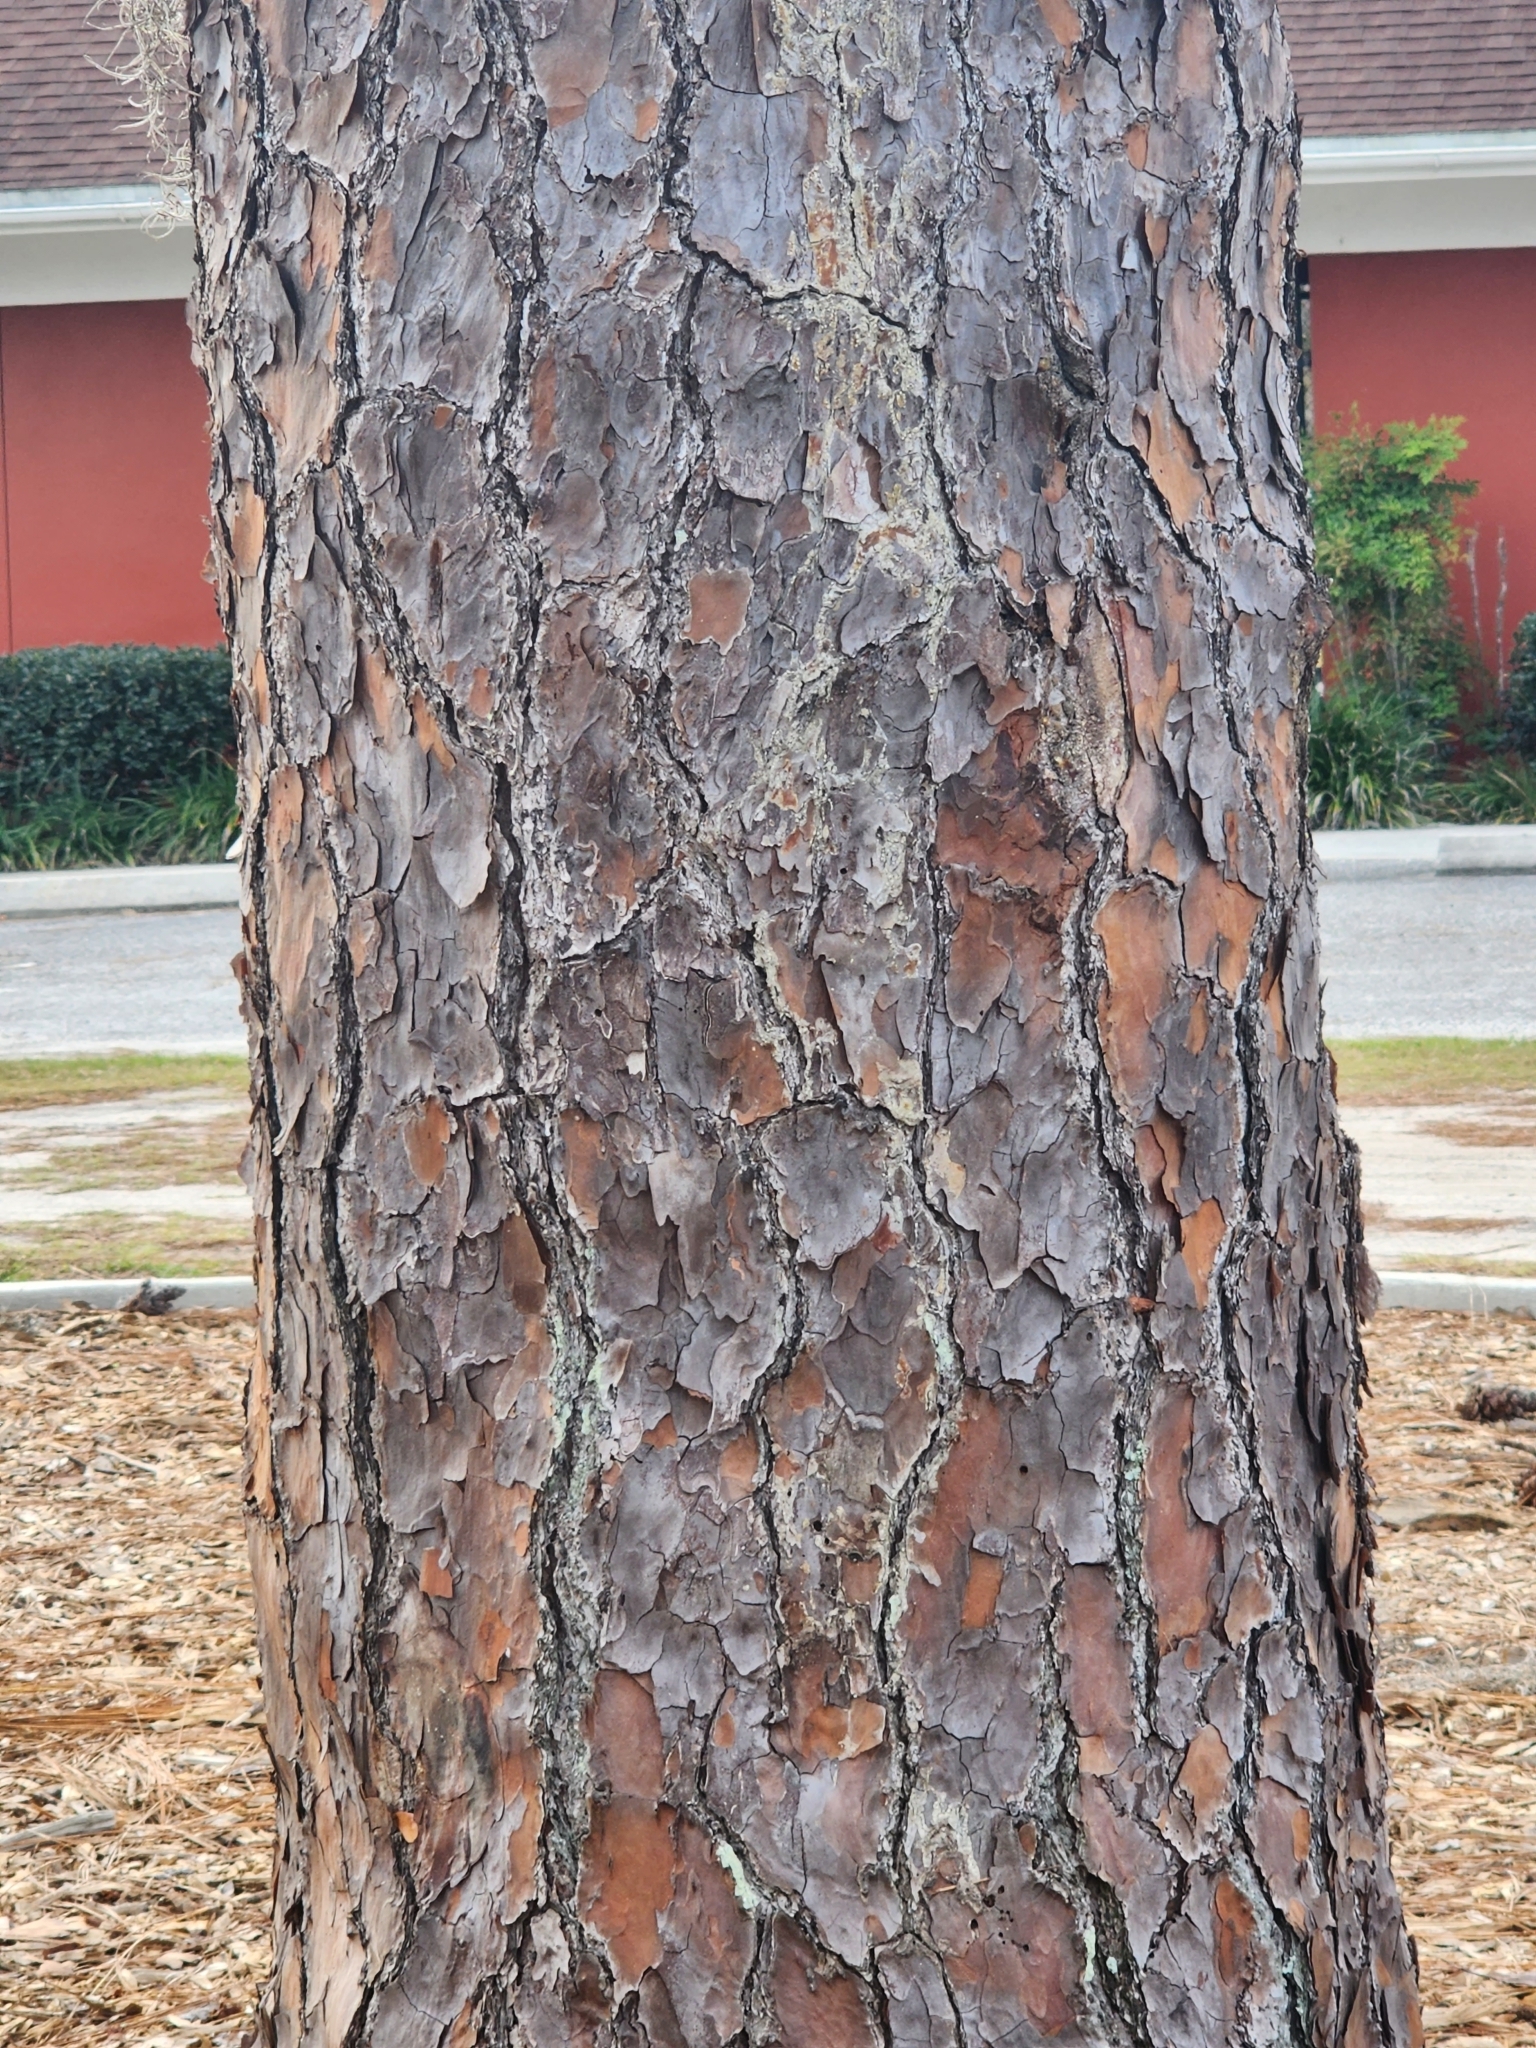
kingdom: Plantae
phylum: Tracheophyta
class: Pinopsida
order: Pinales
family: Pinaceae
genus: Pinus
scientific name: Pinus palustris
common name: Longleaf pine
